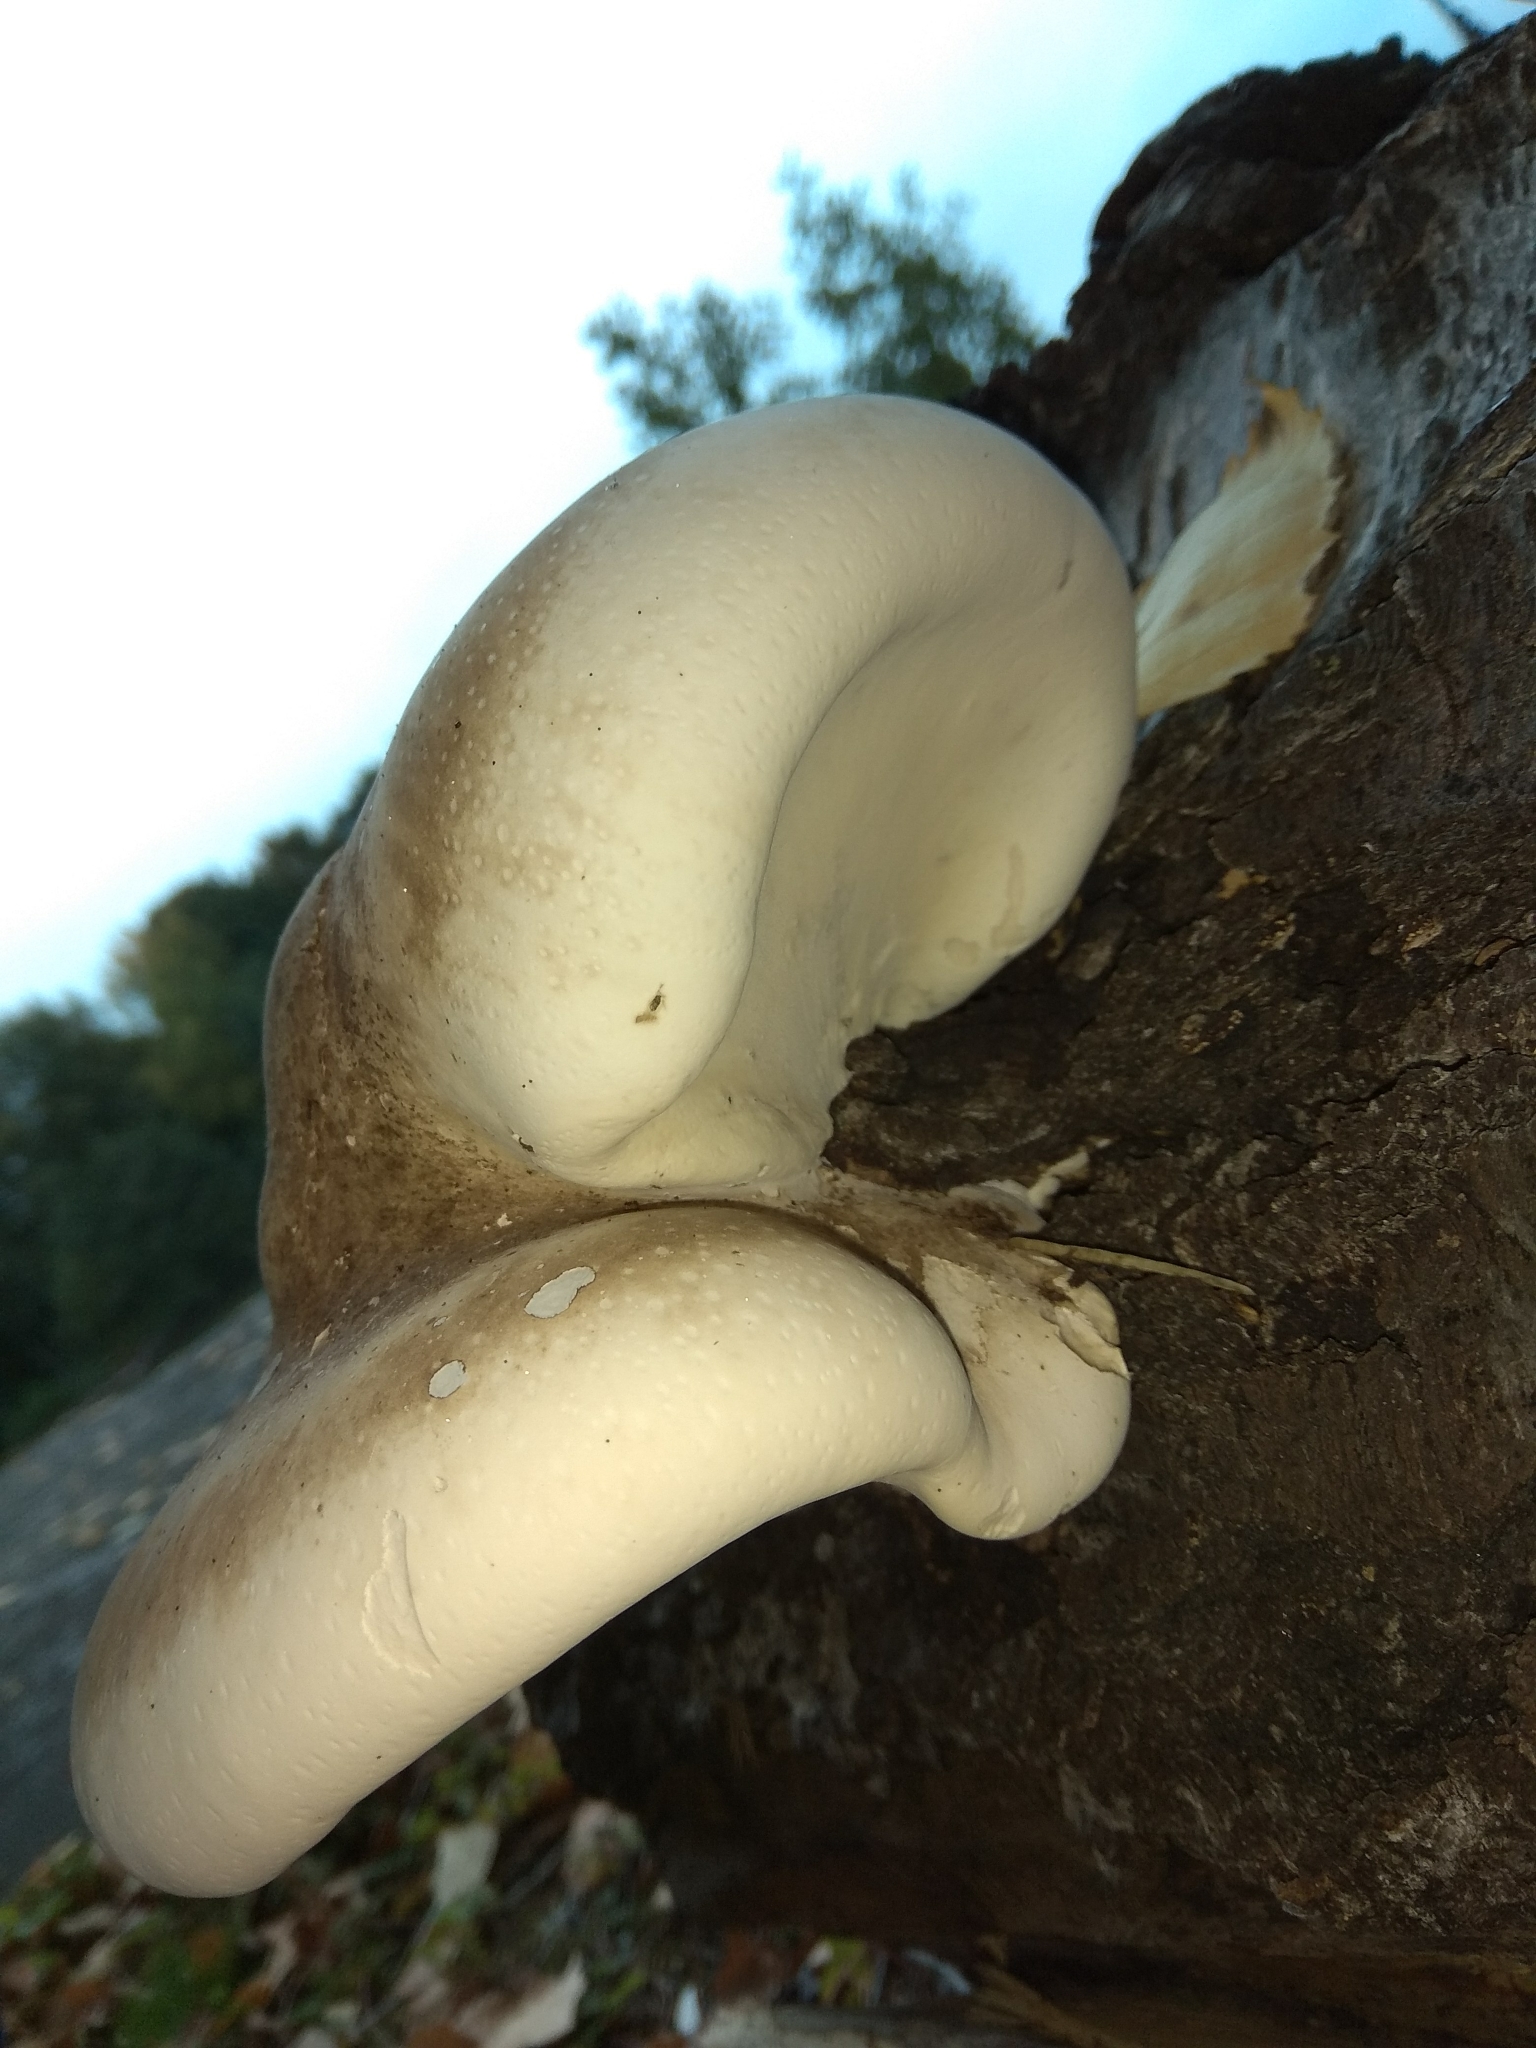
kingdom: Fungi
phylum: Basidiomycota
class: Agaricomycetes
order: Polyporales
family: Fomitopsidaceae
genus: Fomitopsis
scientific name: Fomitopsis betulina
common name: Birch polypore
